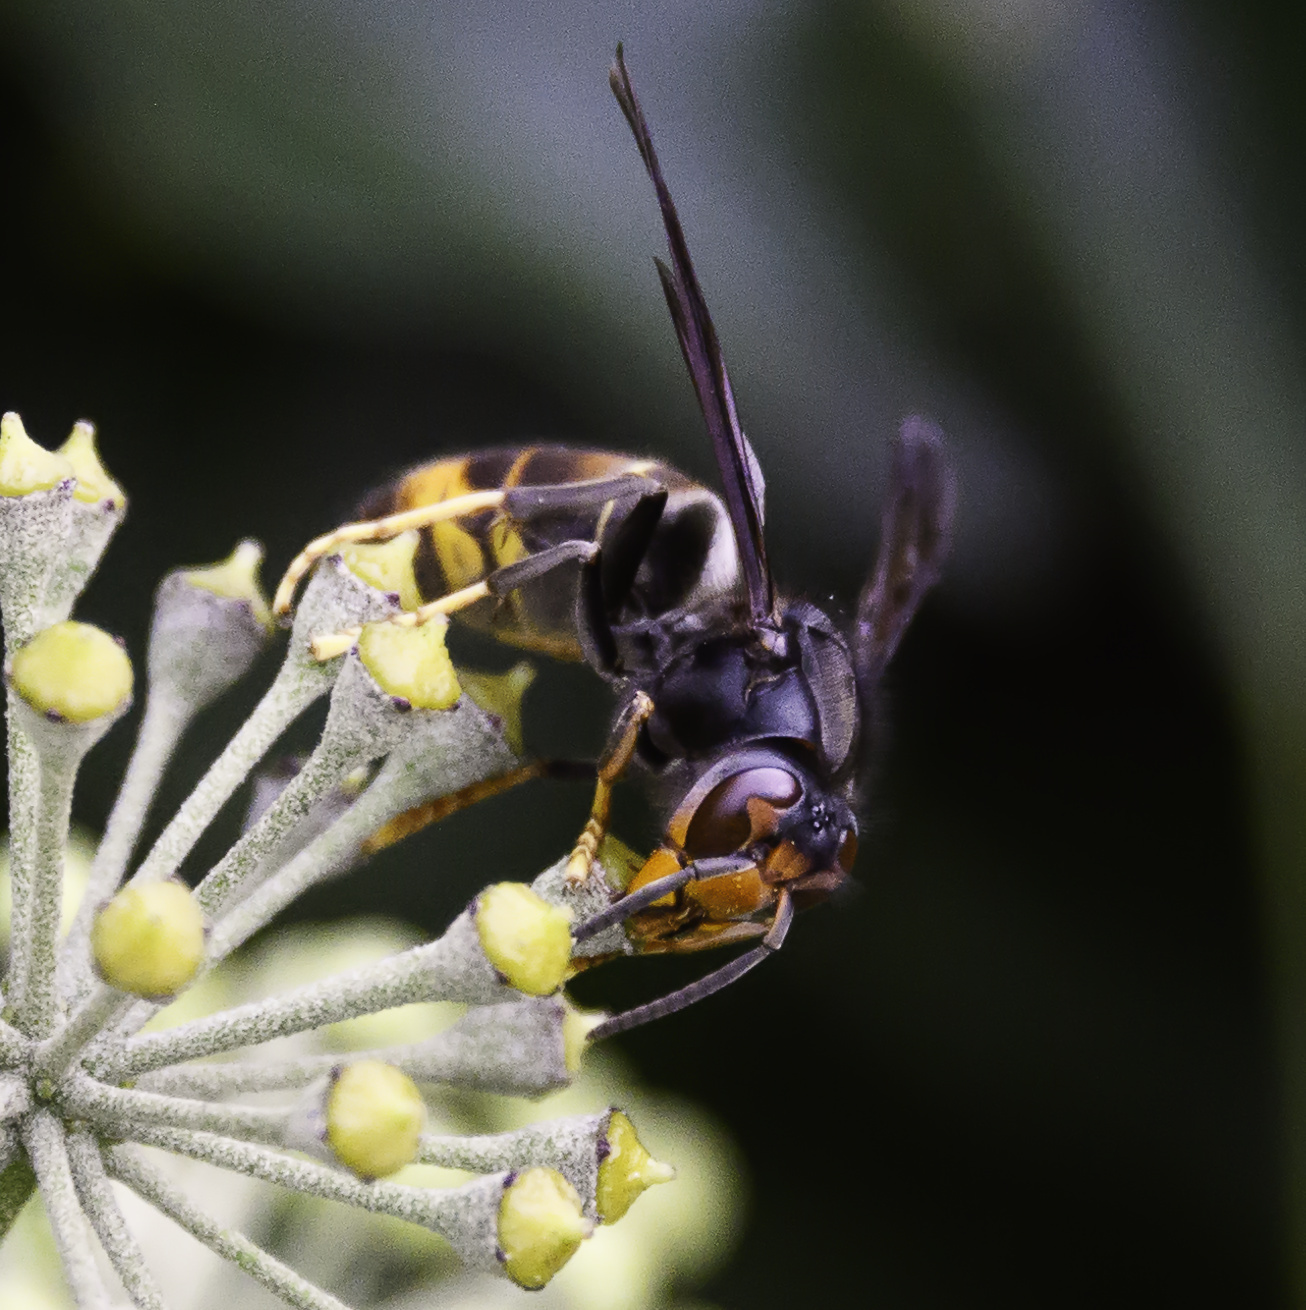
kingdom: Animalia
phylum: Arthropoda
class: Insecta
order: Hymenoptera
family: Vespidae
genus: Vespa
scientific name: Vespa velutina
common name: Asian hornet
